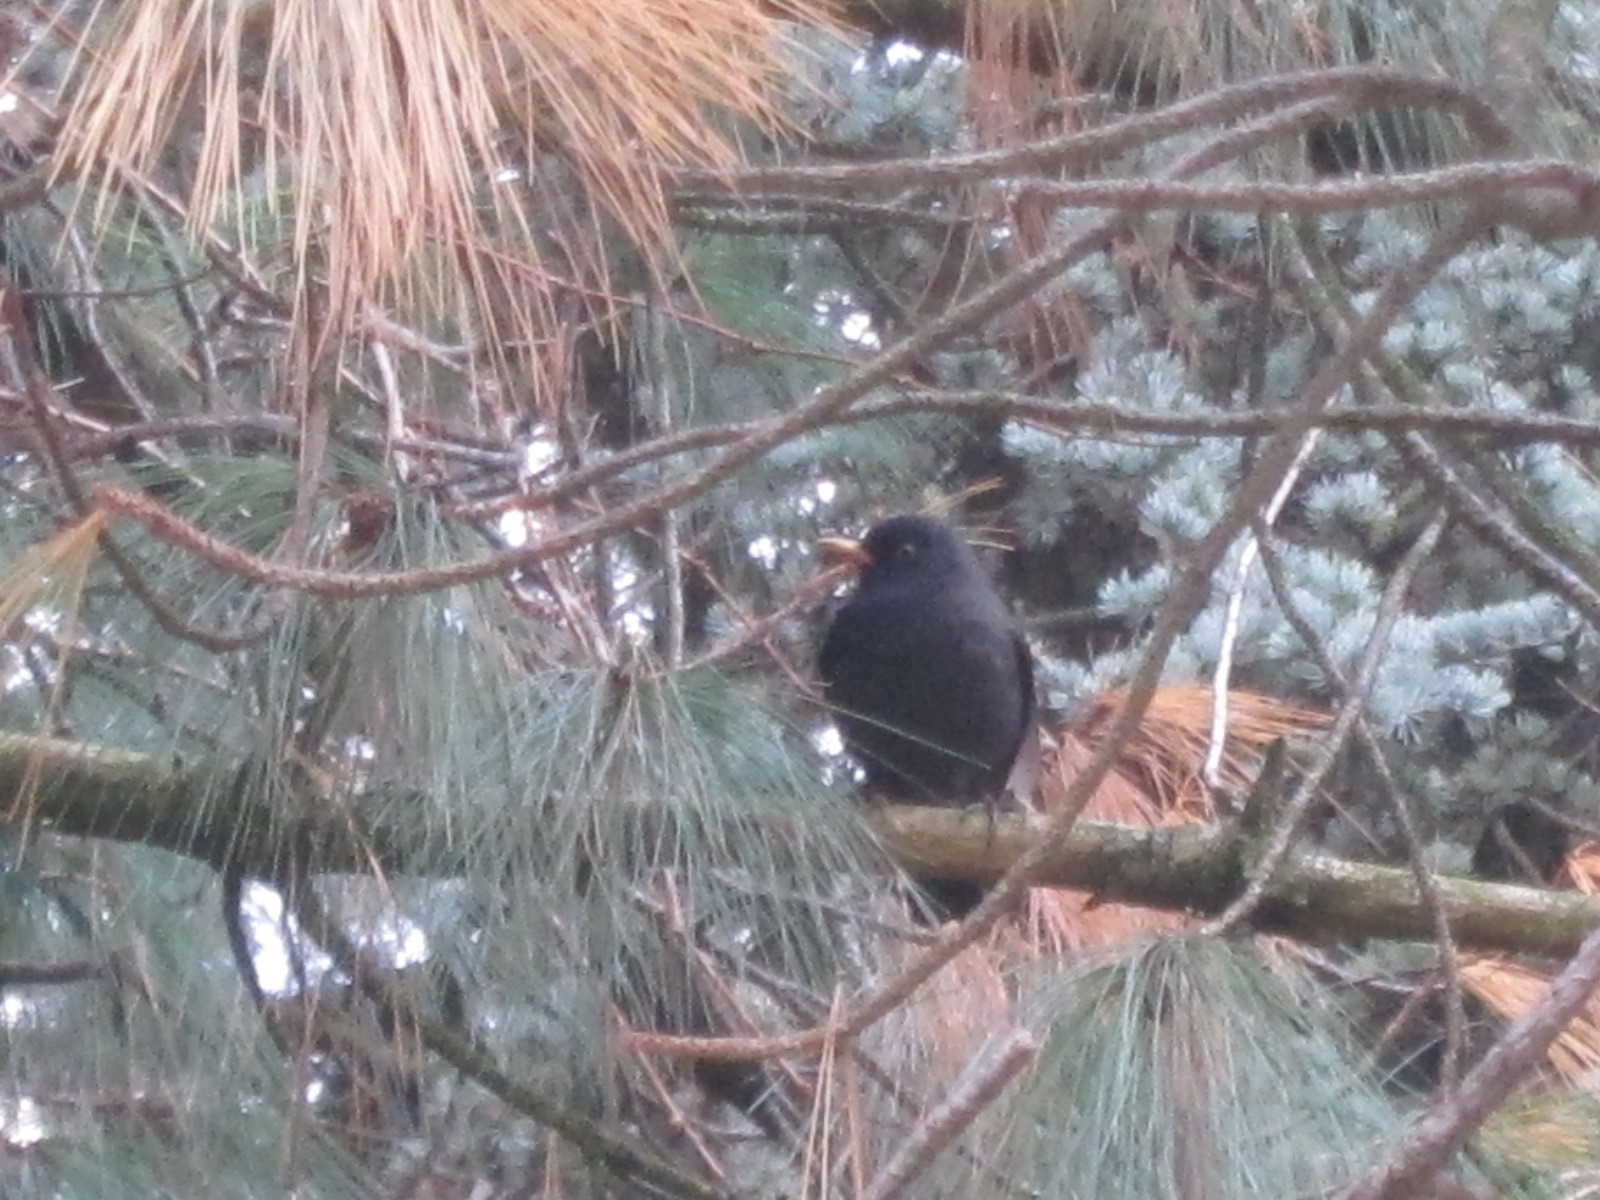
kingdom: Animalia
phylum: Chordata
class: Aves
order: Passeriformes
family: Turdidae
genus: Turdus
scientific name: Turdus merula
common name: Common blackbird
